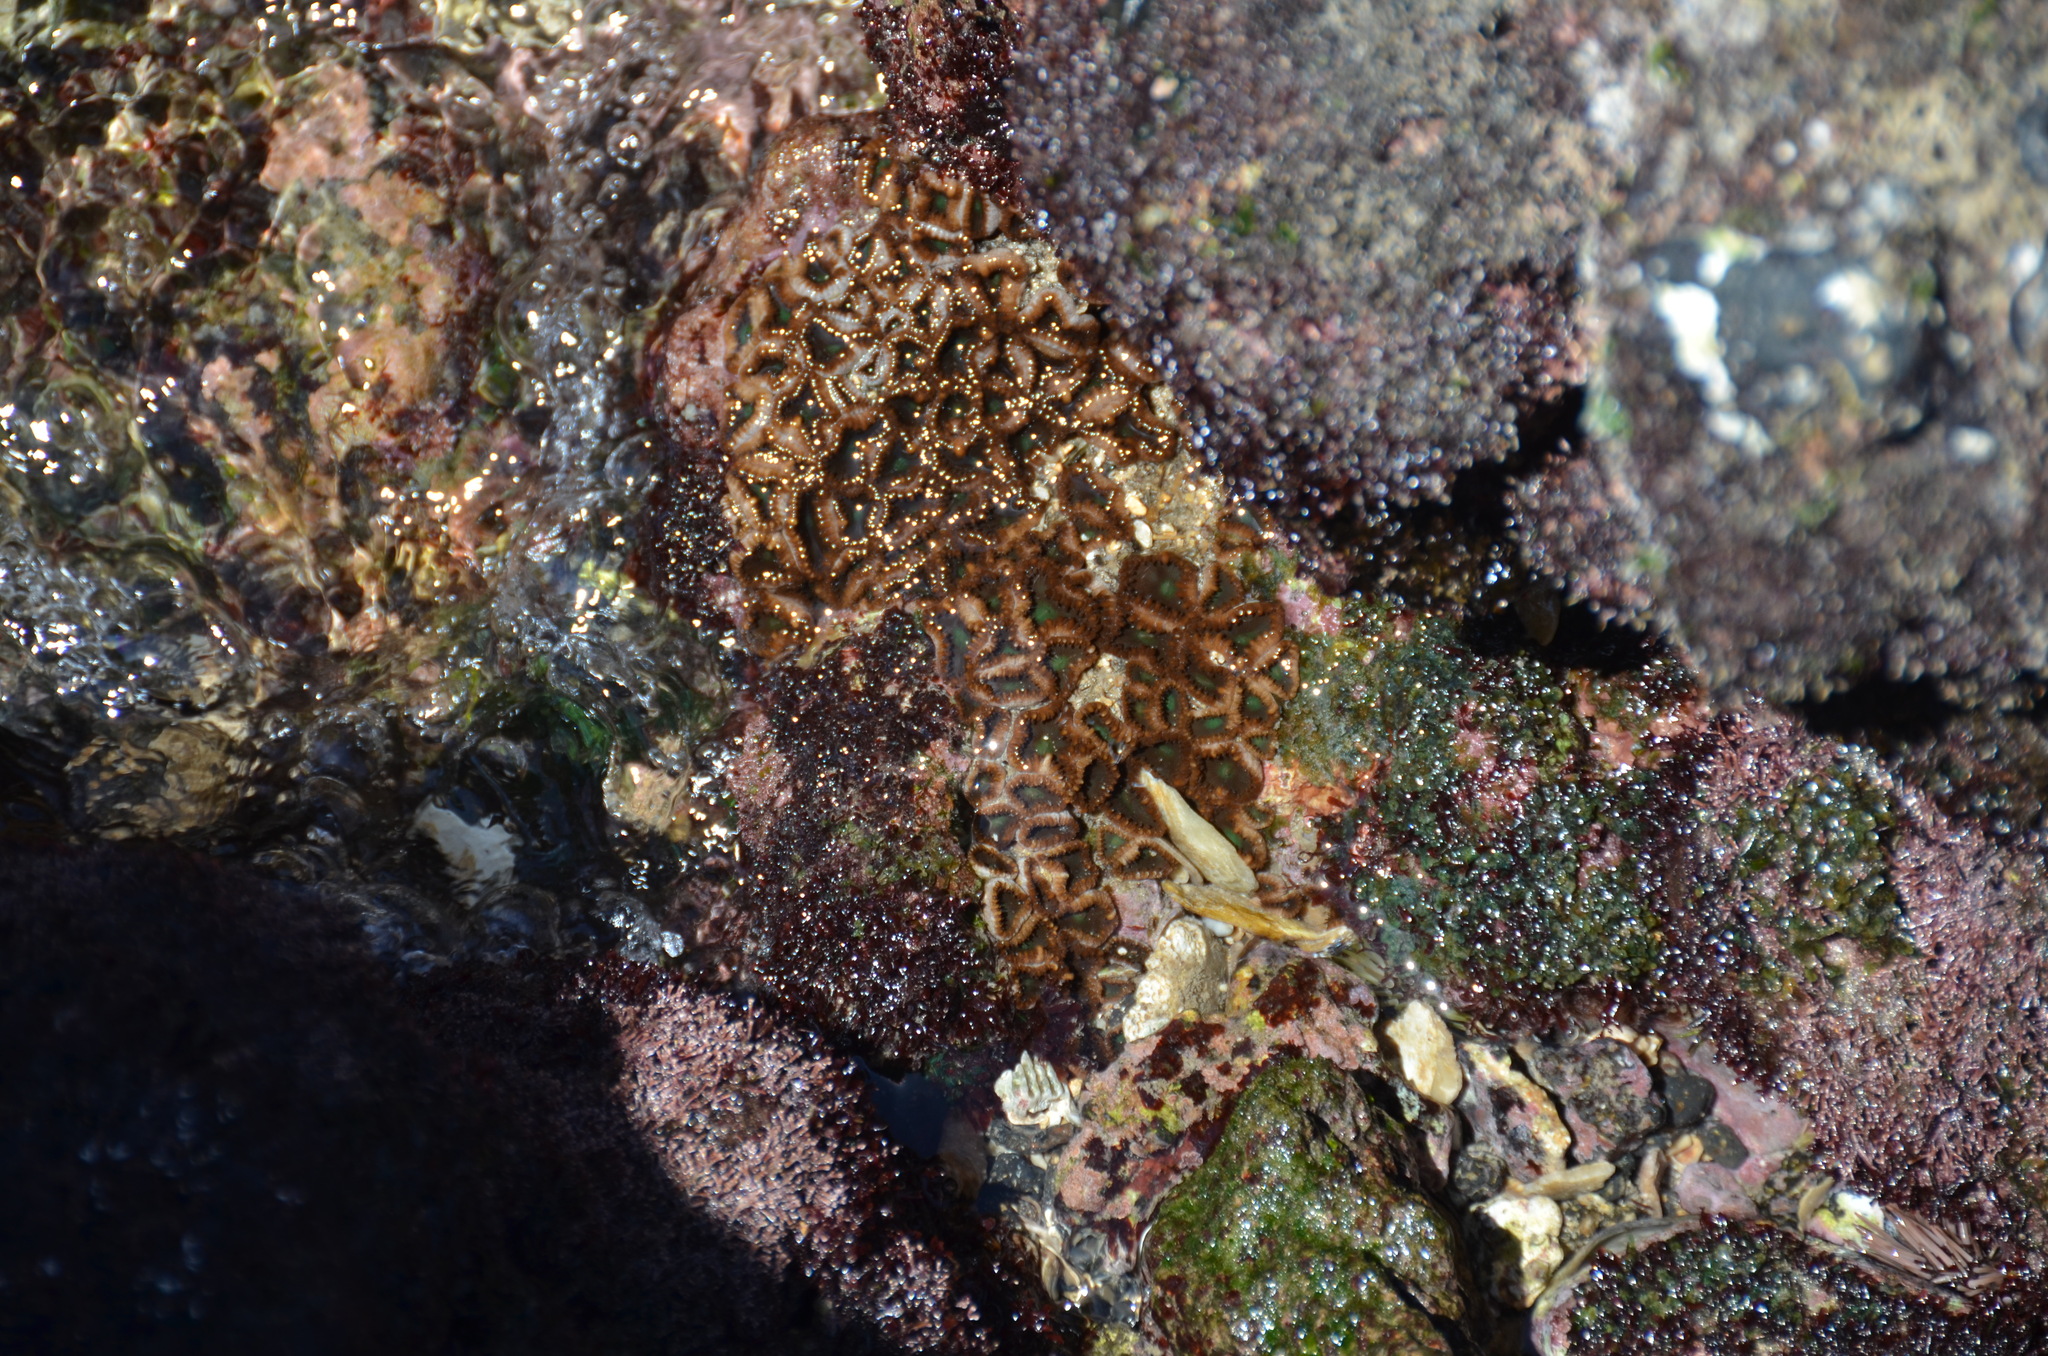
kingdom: Animalia
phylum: Cnidaria
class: Anthozoa
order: Zoantharia
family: Sphenopidae
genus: Palythoa
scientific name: Palythoa mutuki
